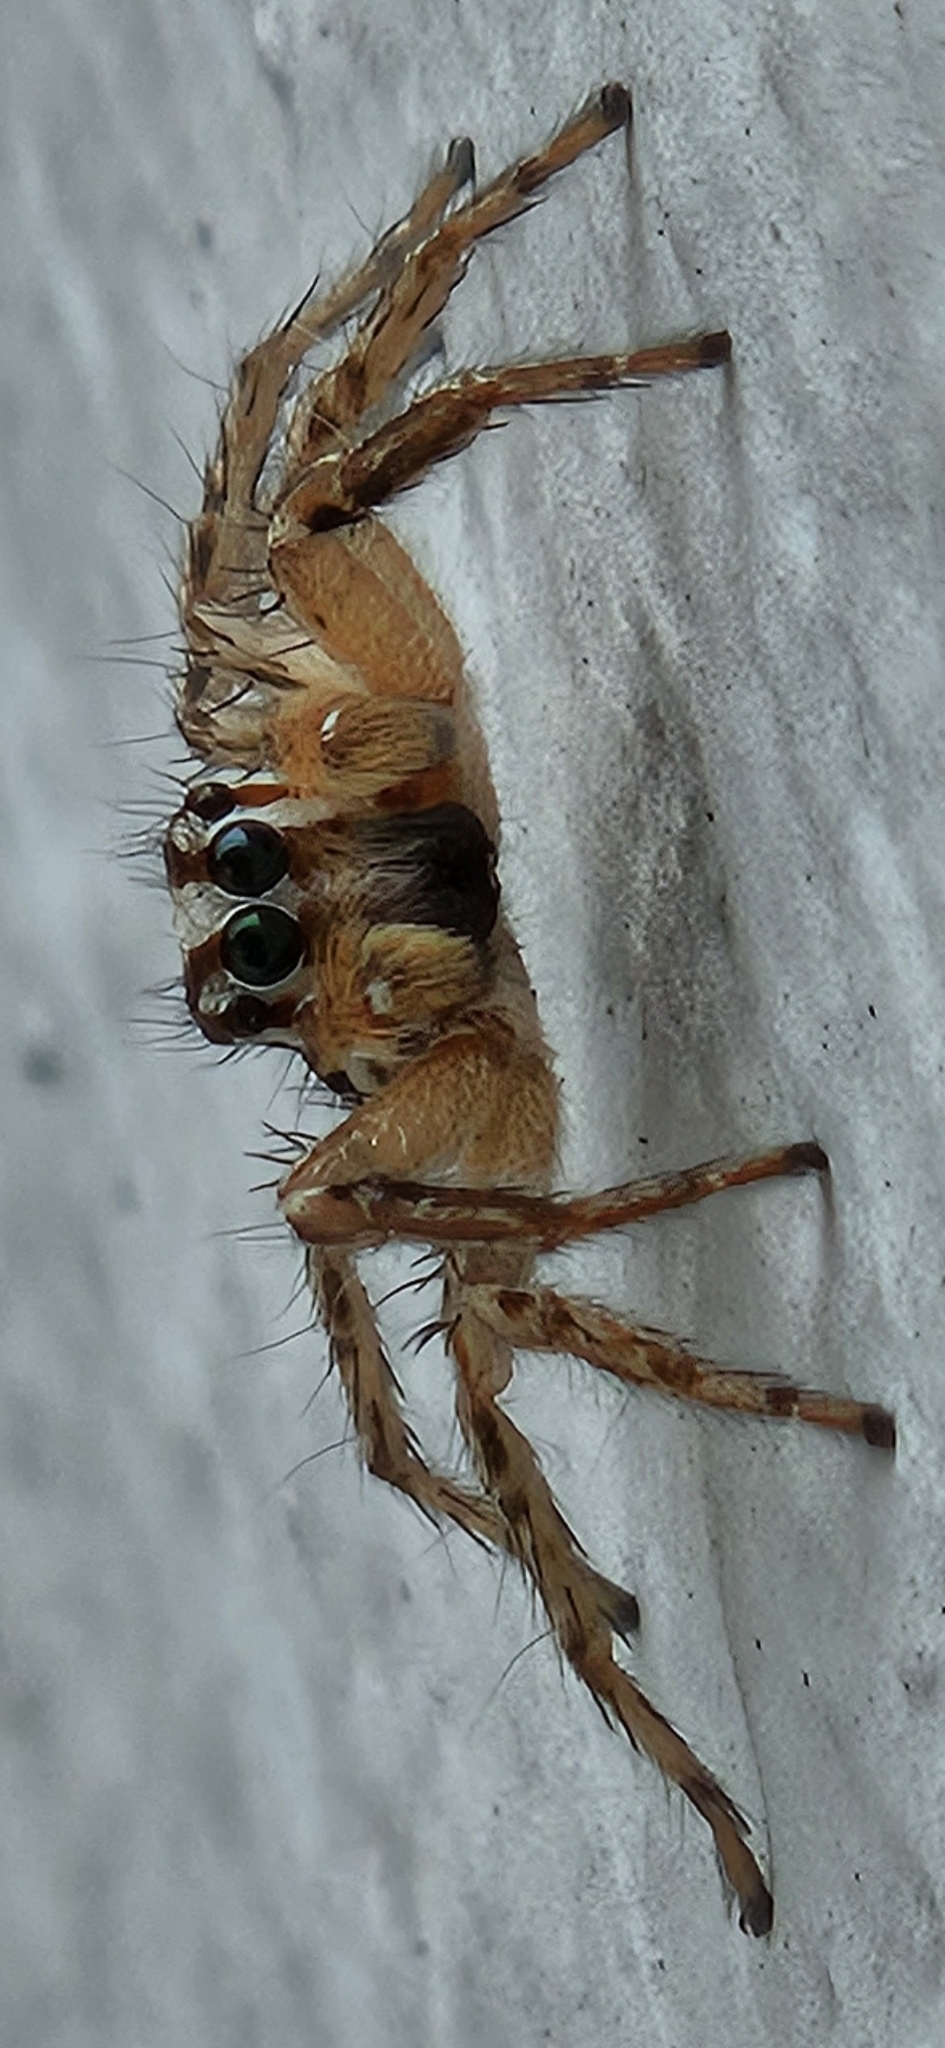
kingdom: Animalia
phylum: Arthropoda
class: Arachnida
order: Araneae
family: Salticidae
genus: Plexippus
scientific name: Plexippus paykulli
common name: Pantropical jumper
